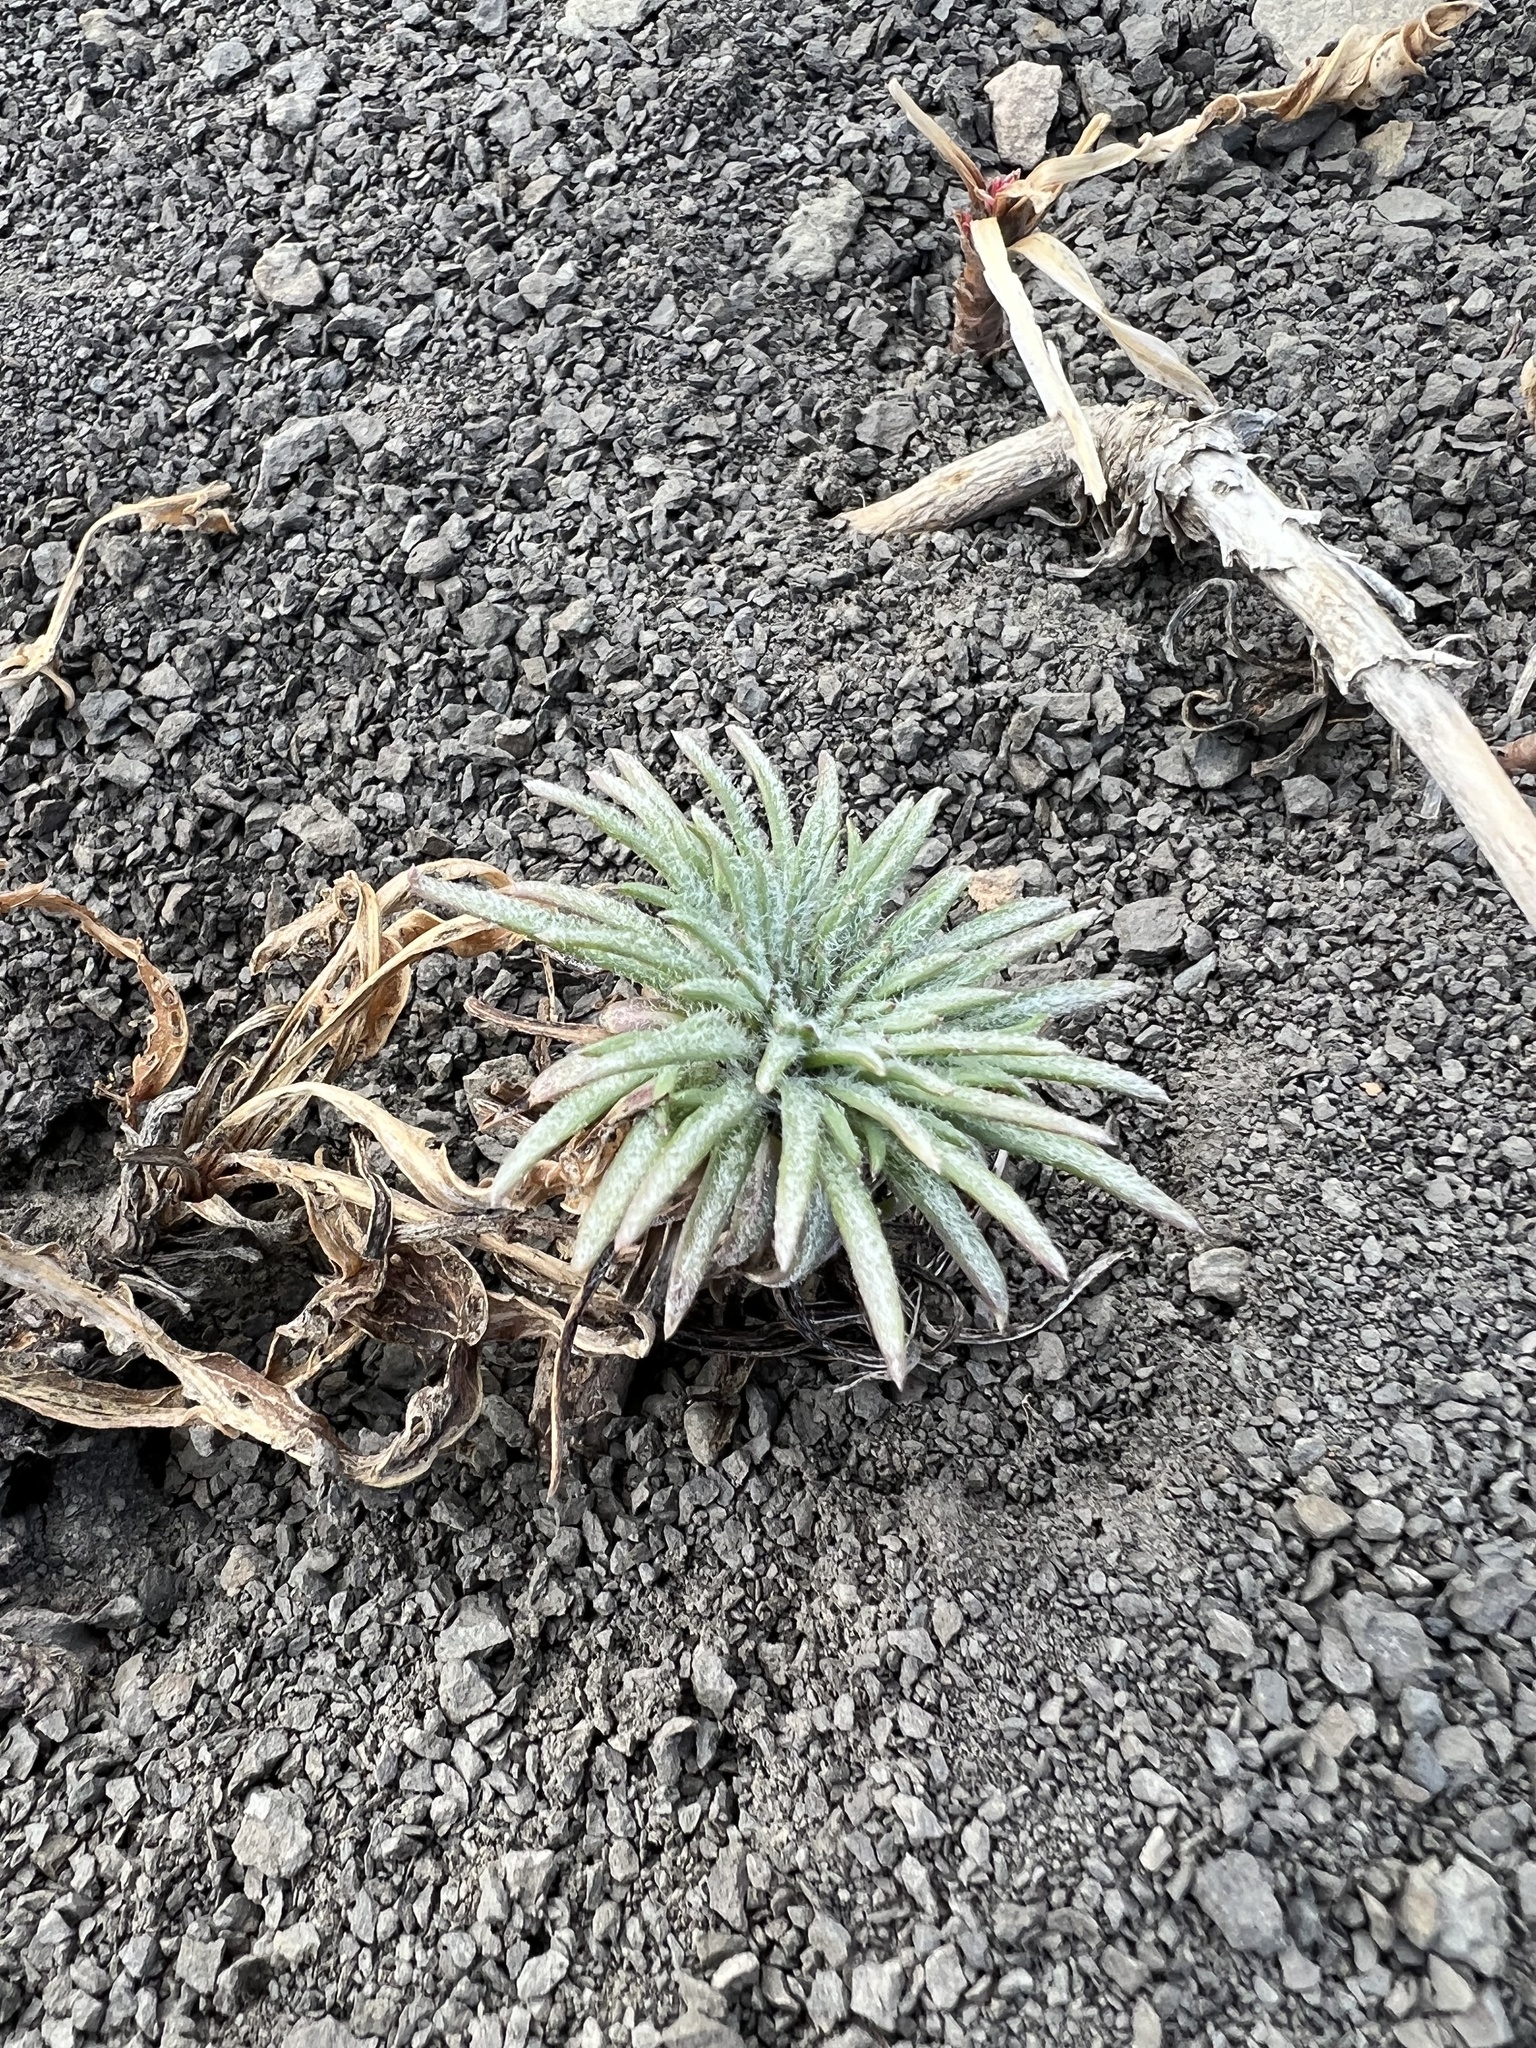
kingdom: Plantae
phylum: Tracheophyta
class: Magnoliopsida
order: Ericales
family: Polemoniaceae
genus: Ipomopsis
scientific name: Ipomopsis spicata
